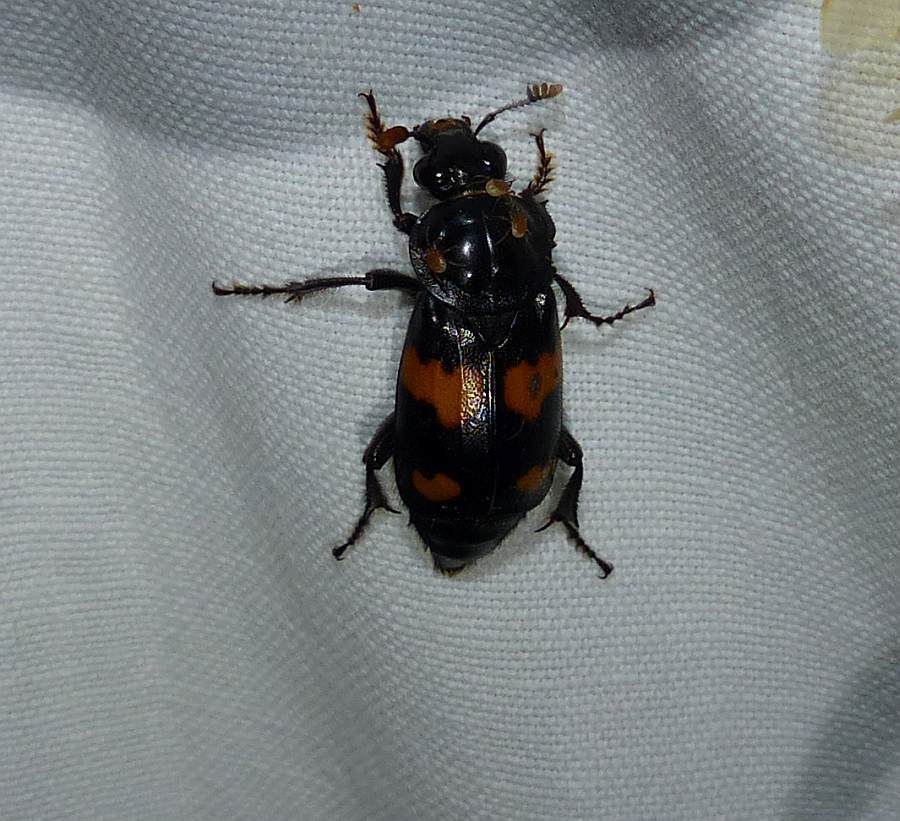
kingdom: Animalia
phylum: Arthropoda
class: Insecta
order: Coleoptera
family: Staphylinidae
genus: Nicrophorus
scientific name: Nicrophorus orbicollis
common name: Roundneck sexton beetle
